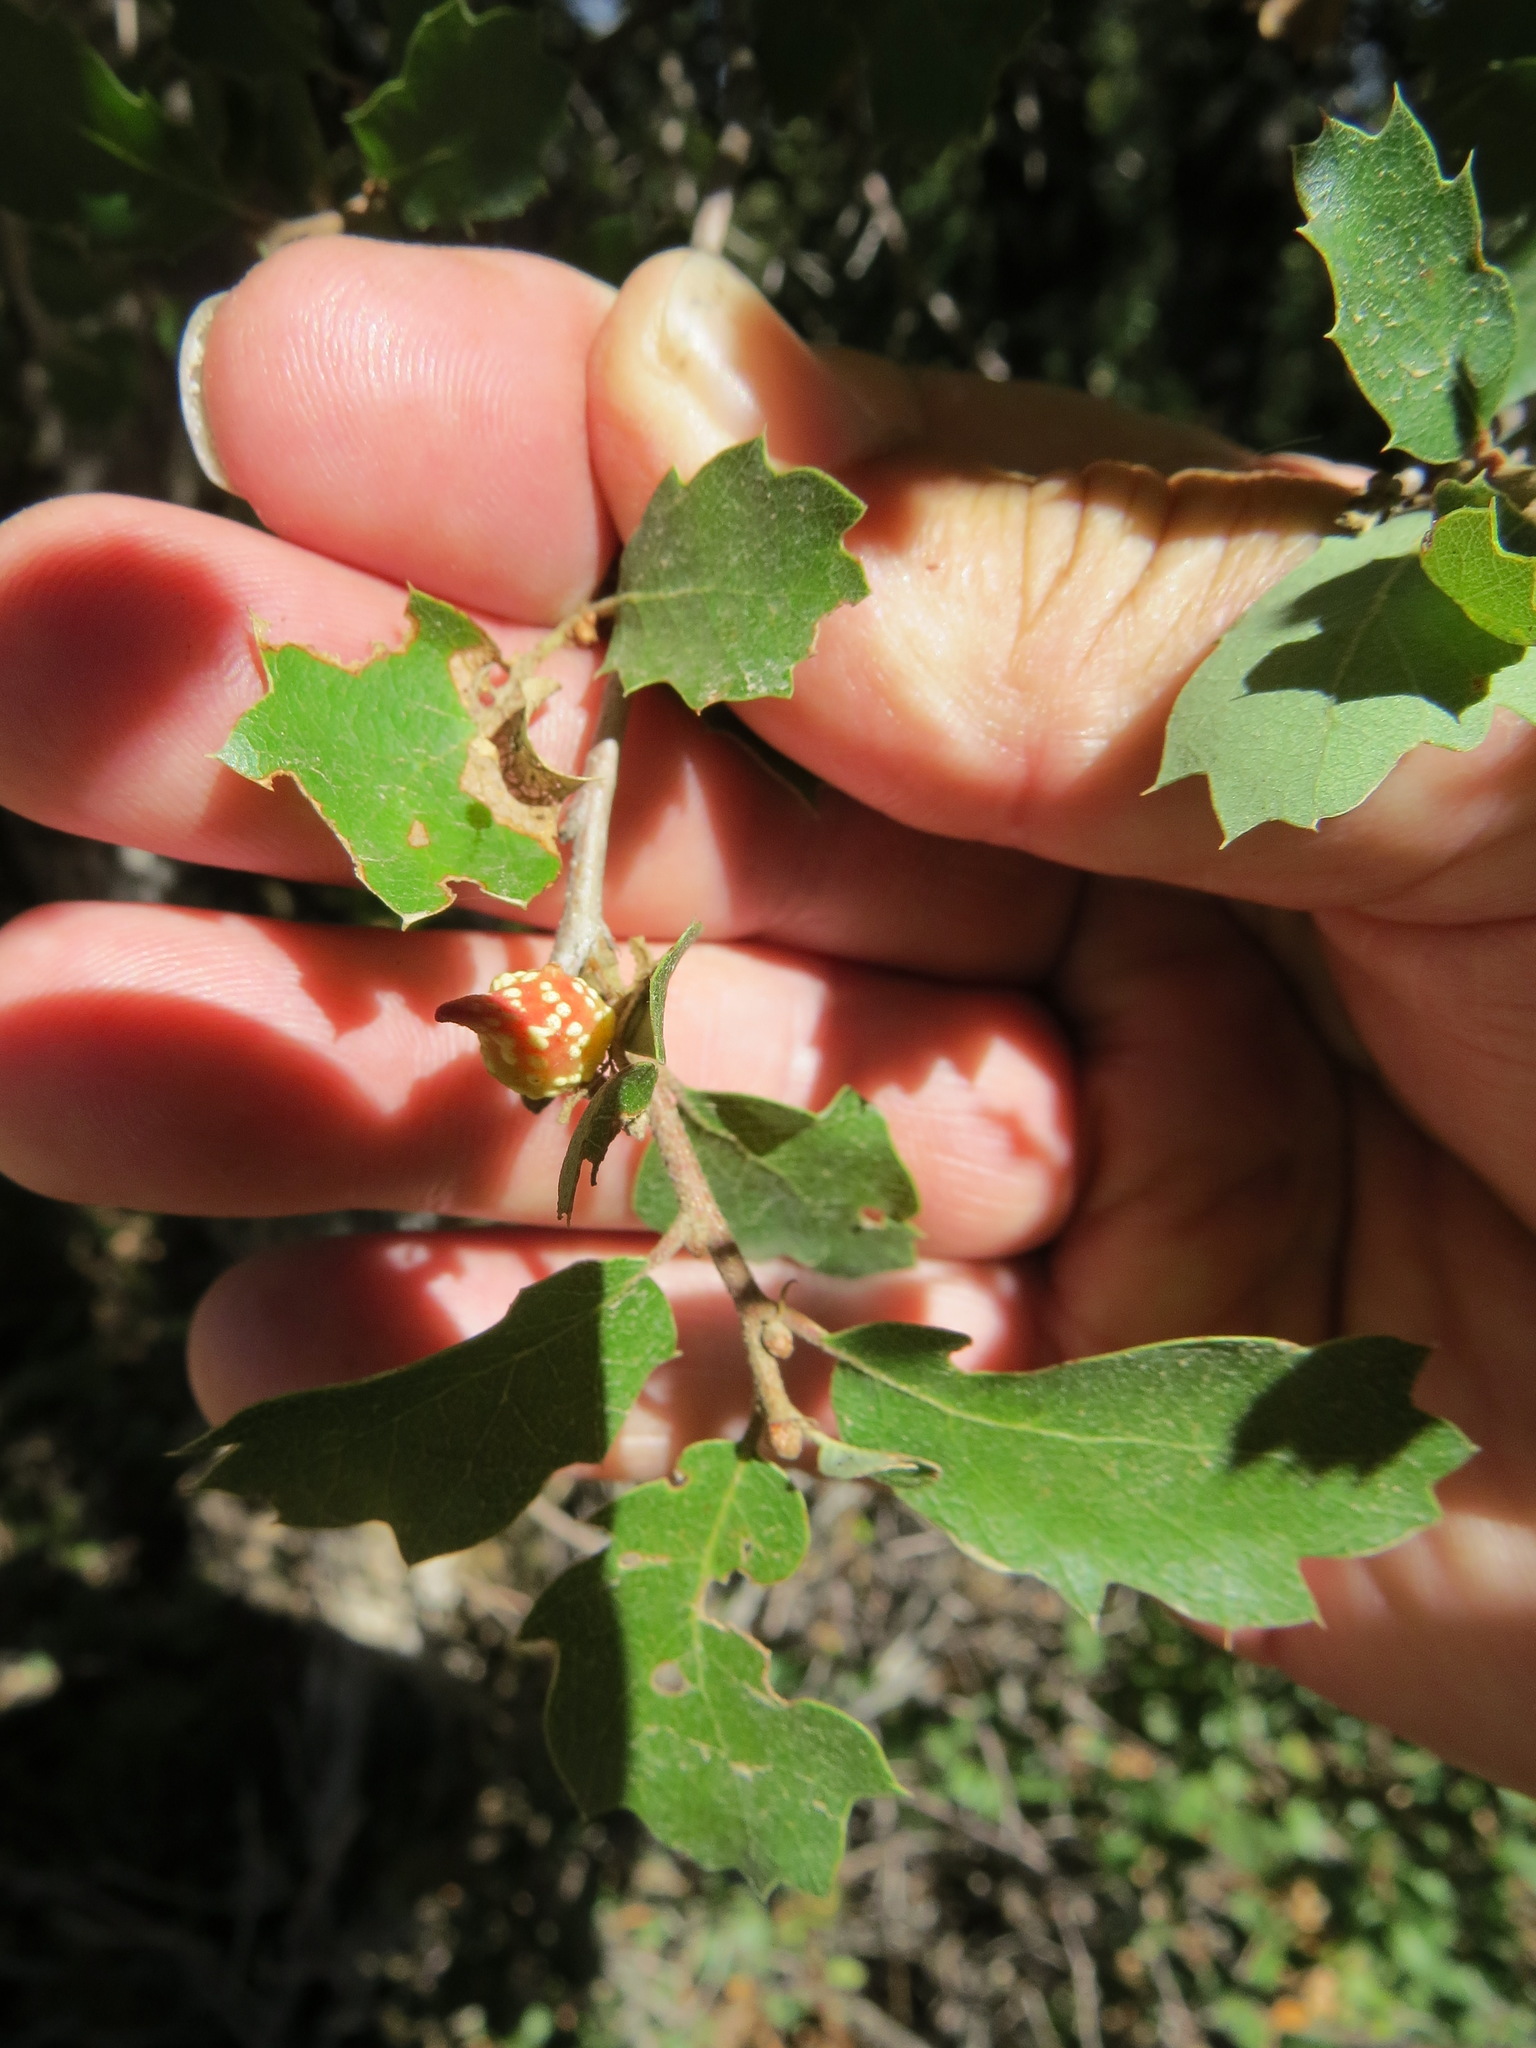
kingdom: Animalia
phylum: Arthropoda
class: Insecta
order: Hymenoptera
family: Cynipidae
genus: Burnettweldia
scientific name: Burnettweldia
